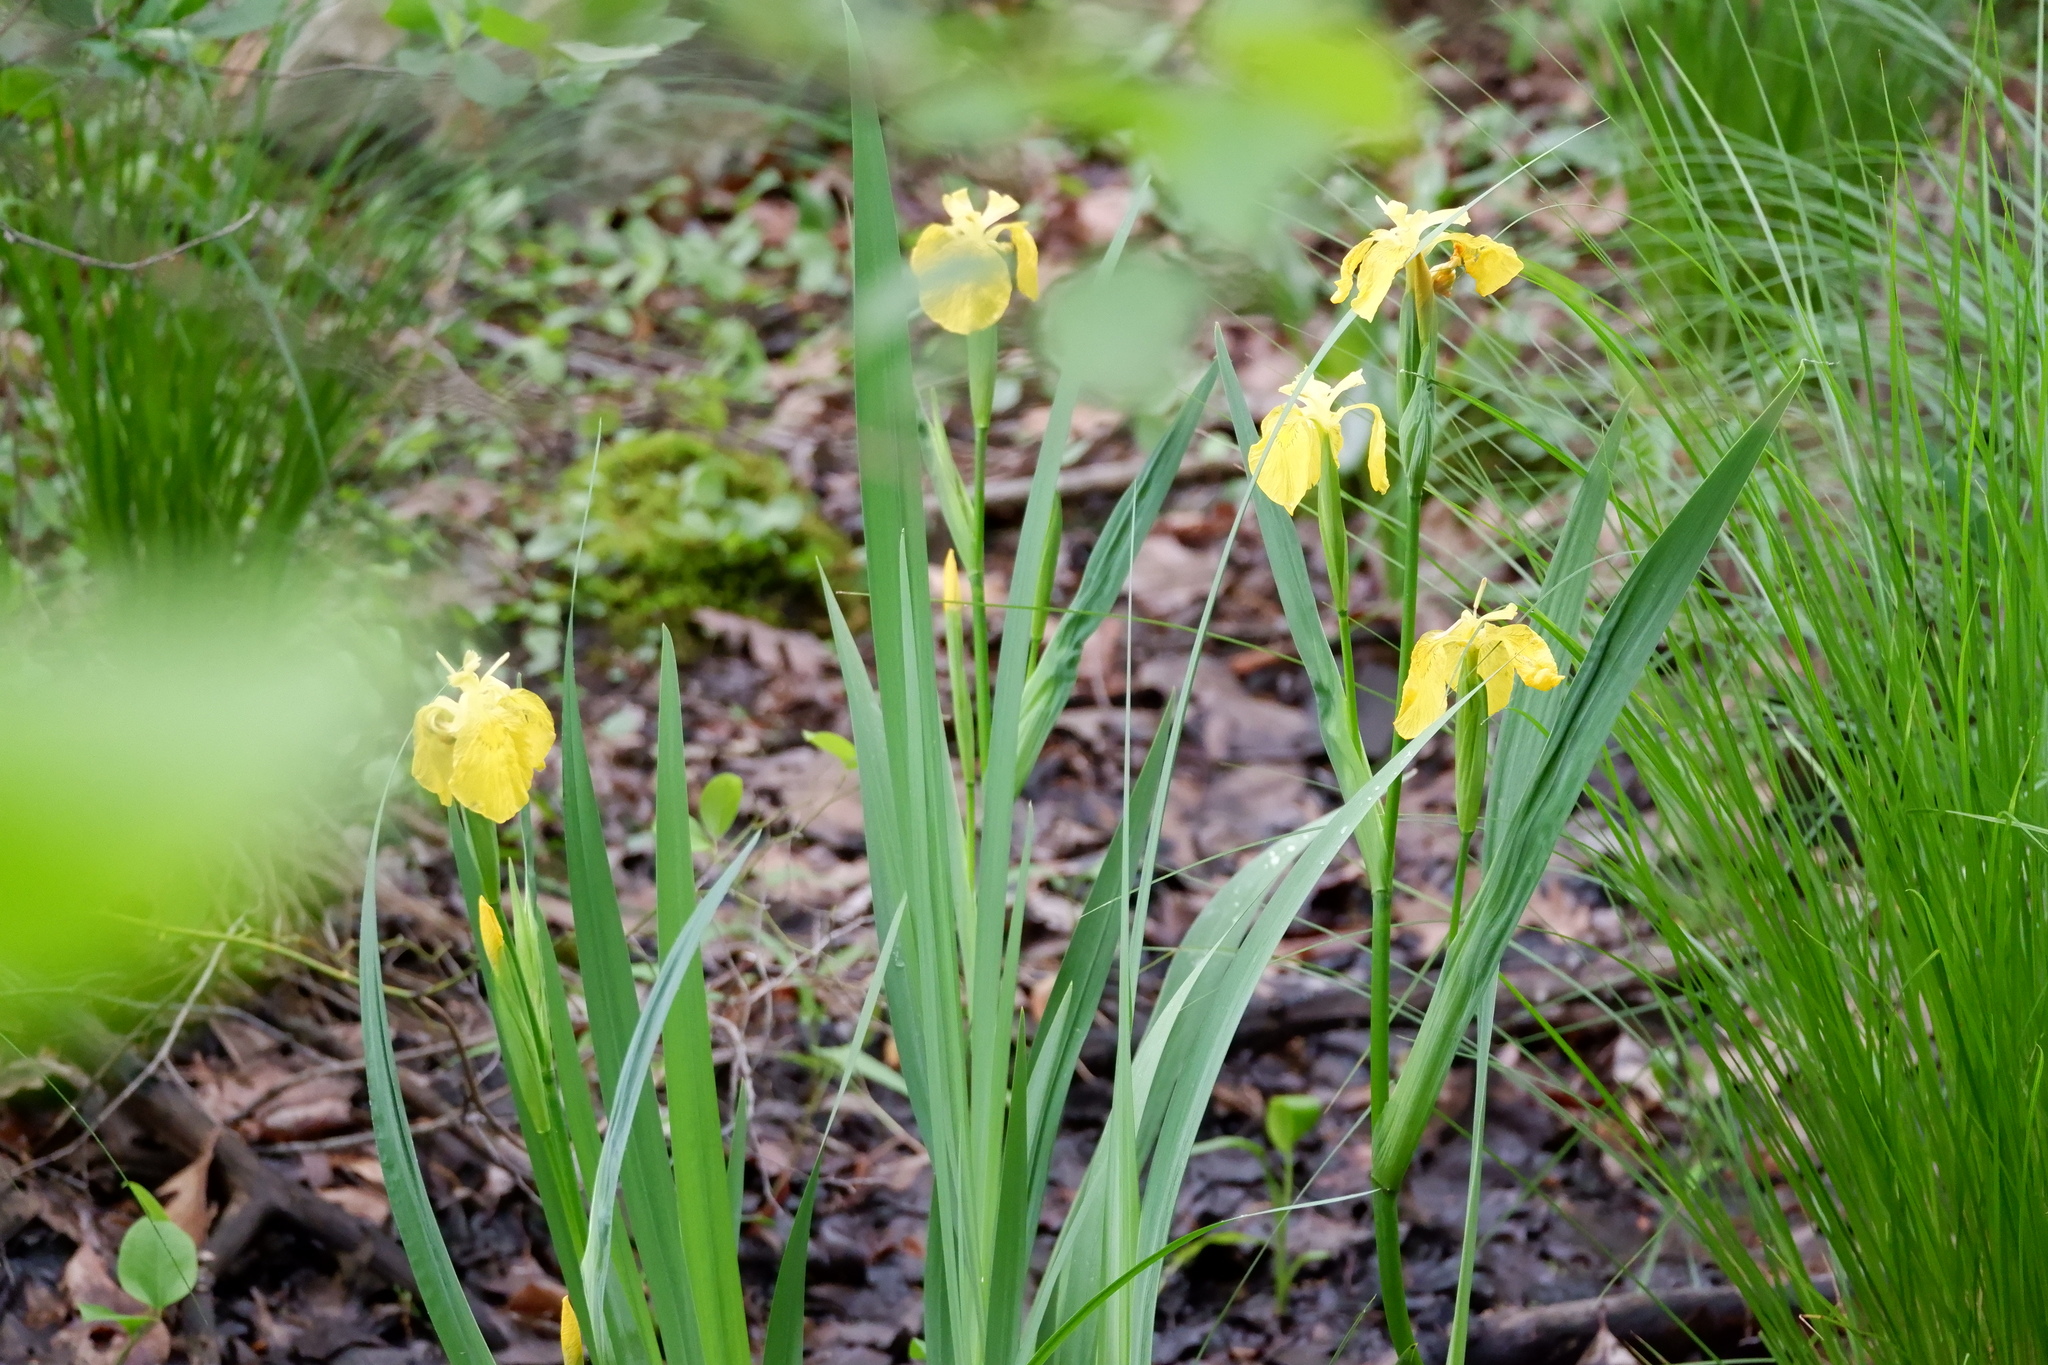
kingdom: Plantae
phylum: Tracheophyta
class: Liliopsida
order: Asparagales
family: Iridaceae
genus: Iris
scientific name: Iris pseudacorus
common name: Yellow flag
